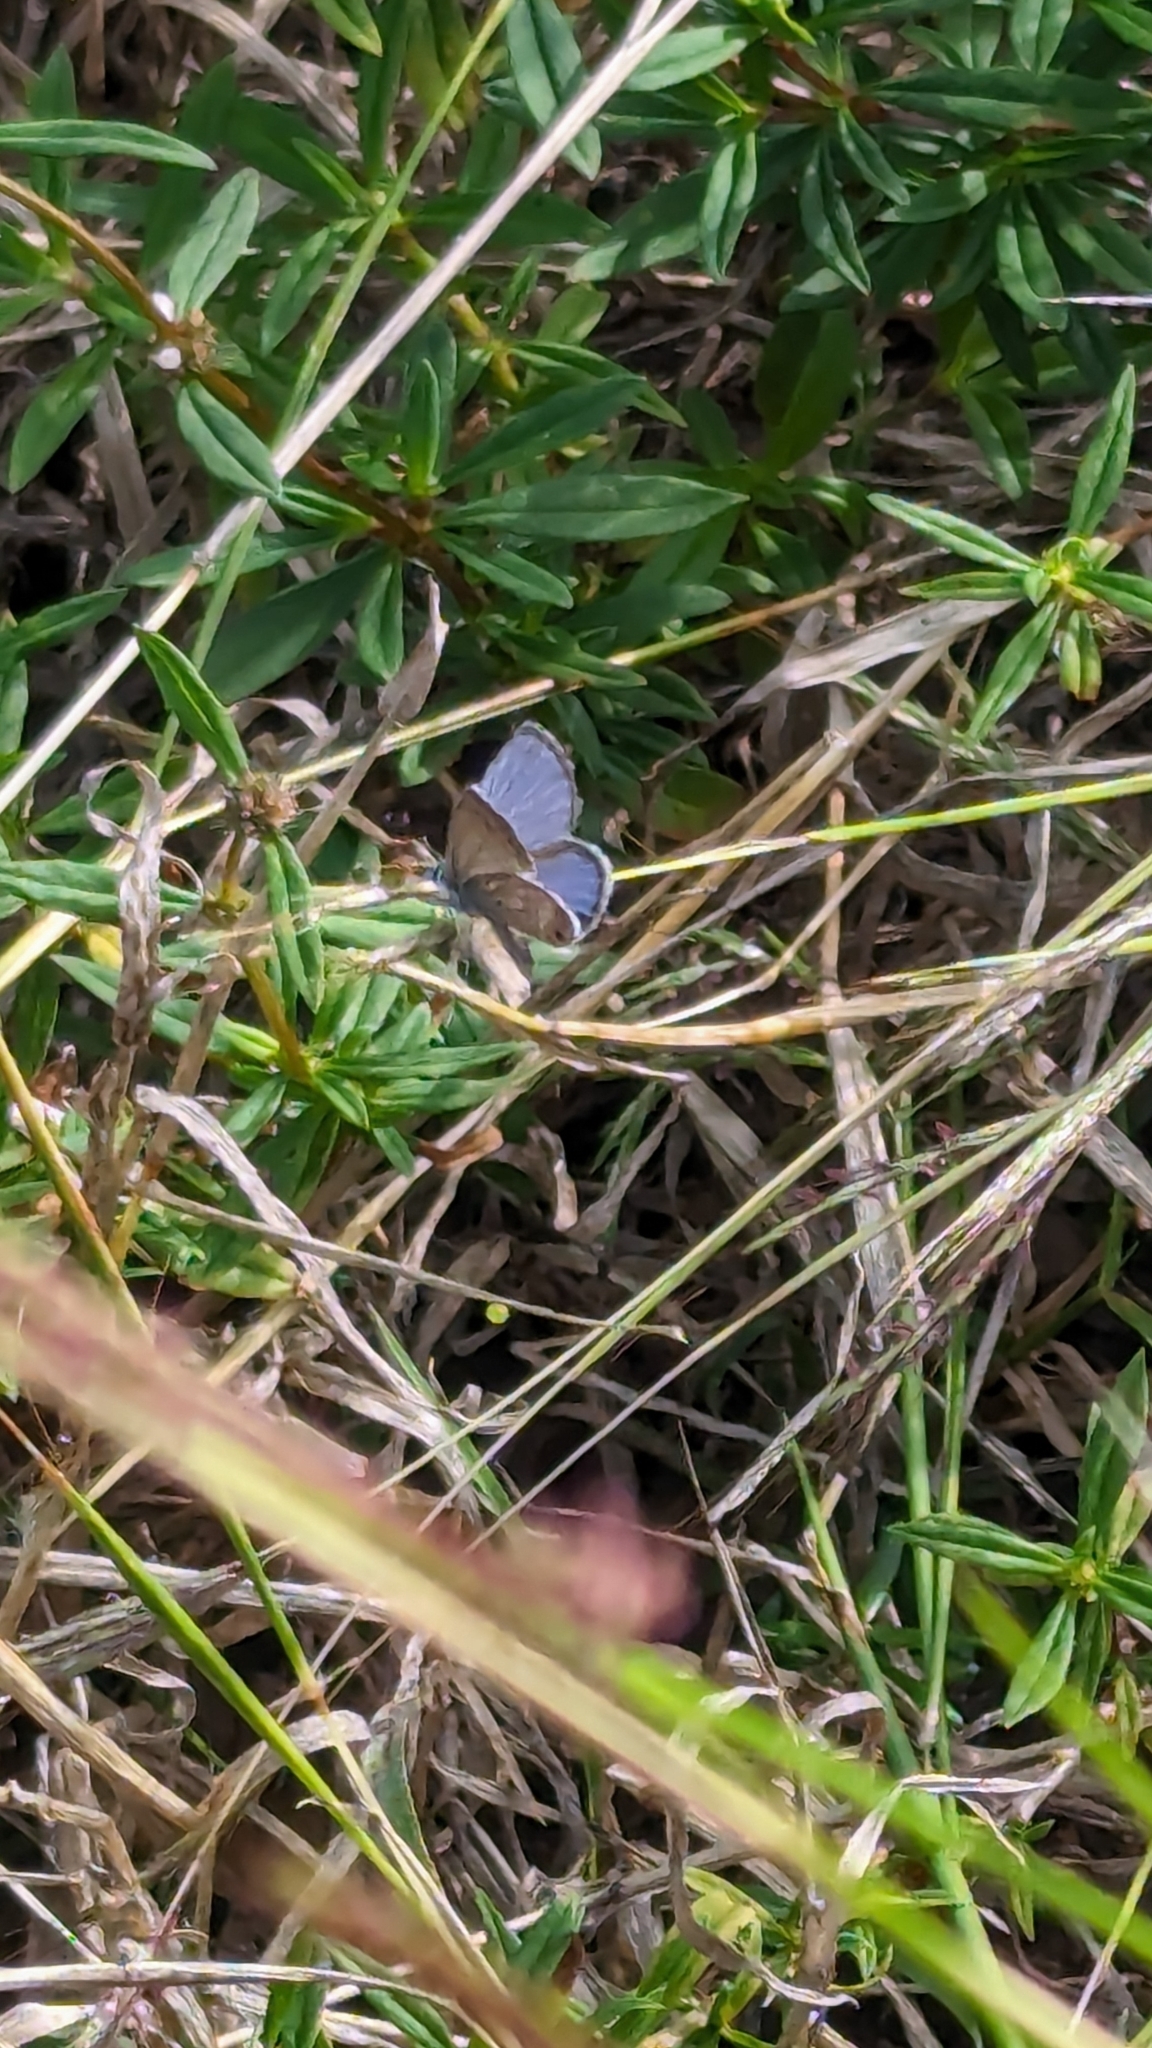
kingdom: Animalia
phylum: Arthropoda
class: Insecta
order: Lepidoptera
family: Lycaenidae
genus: Hemiargus
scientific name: Hemiargus ceraunus
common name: Ceraunus blue
